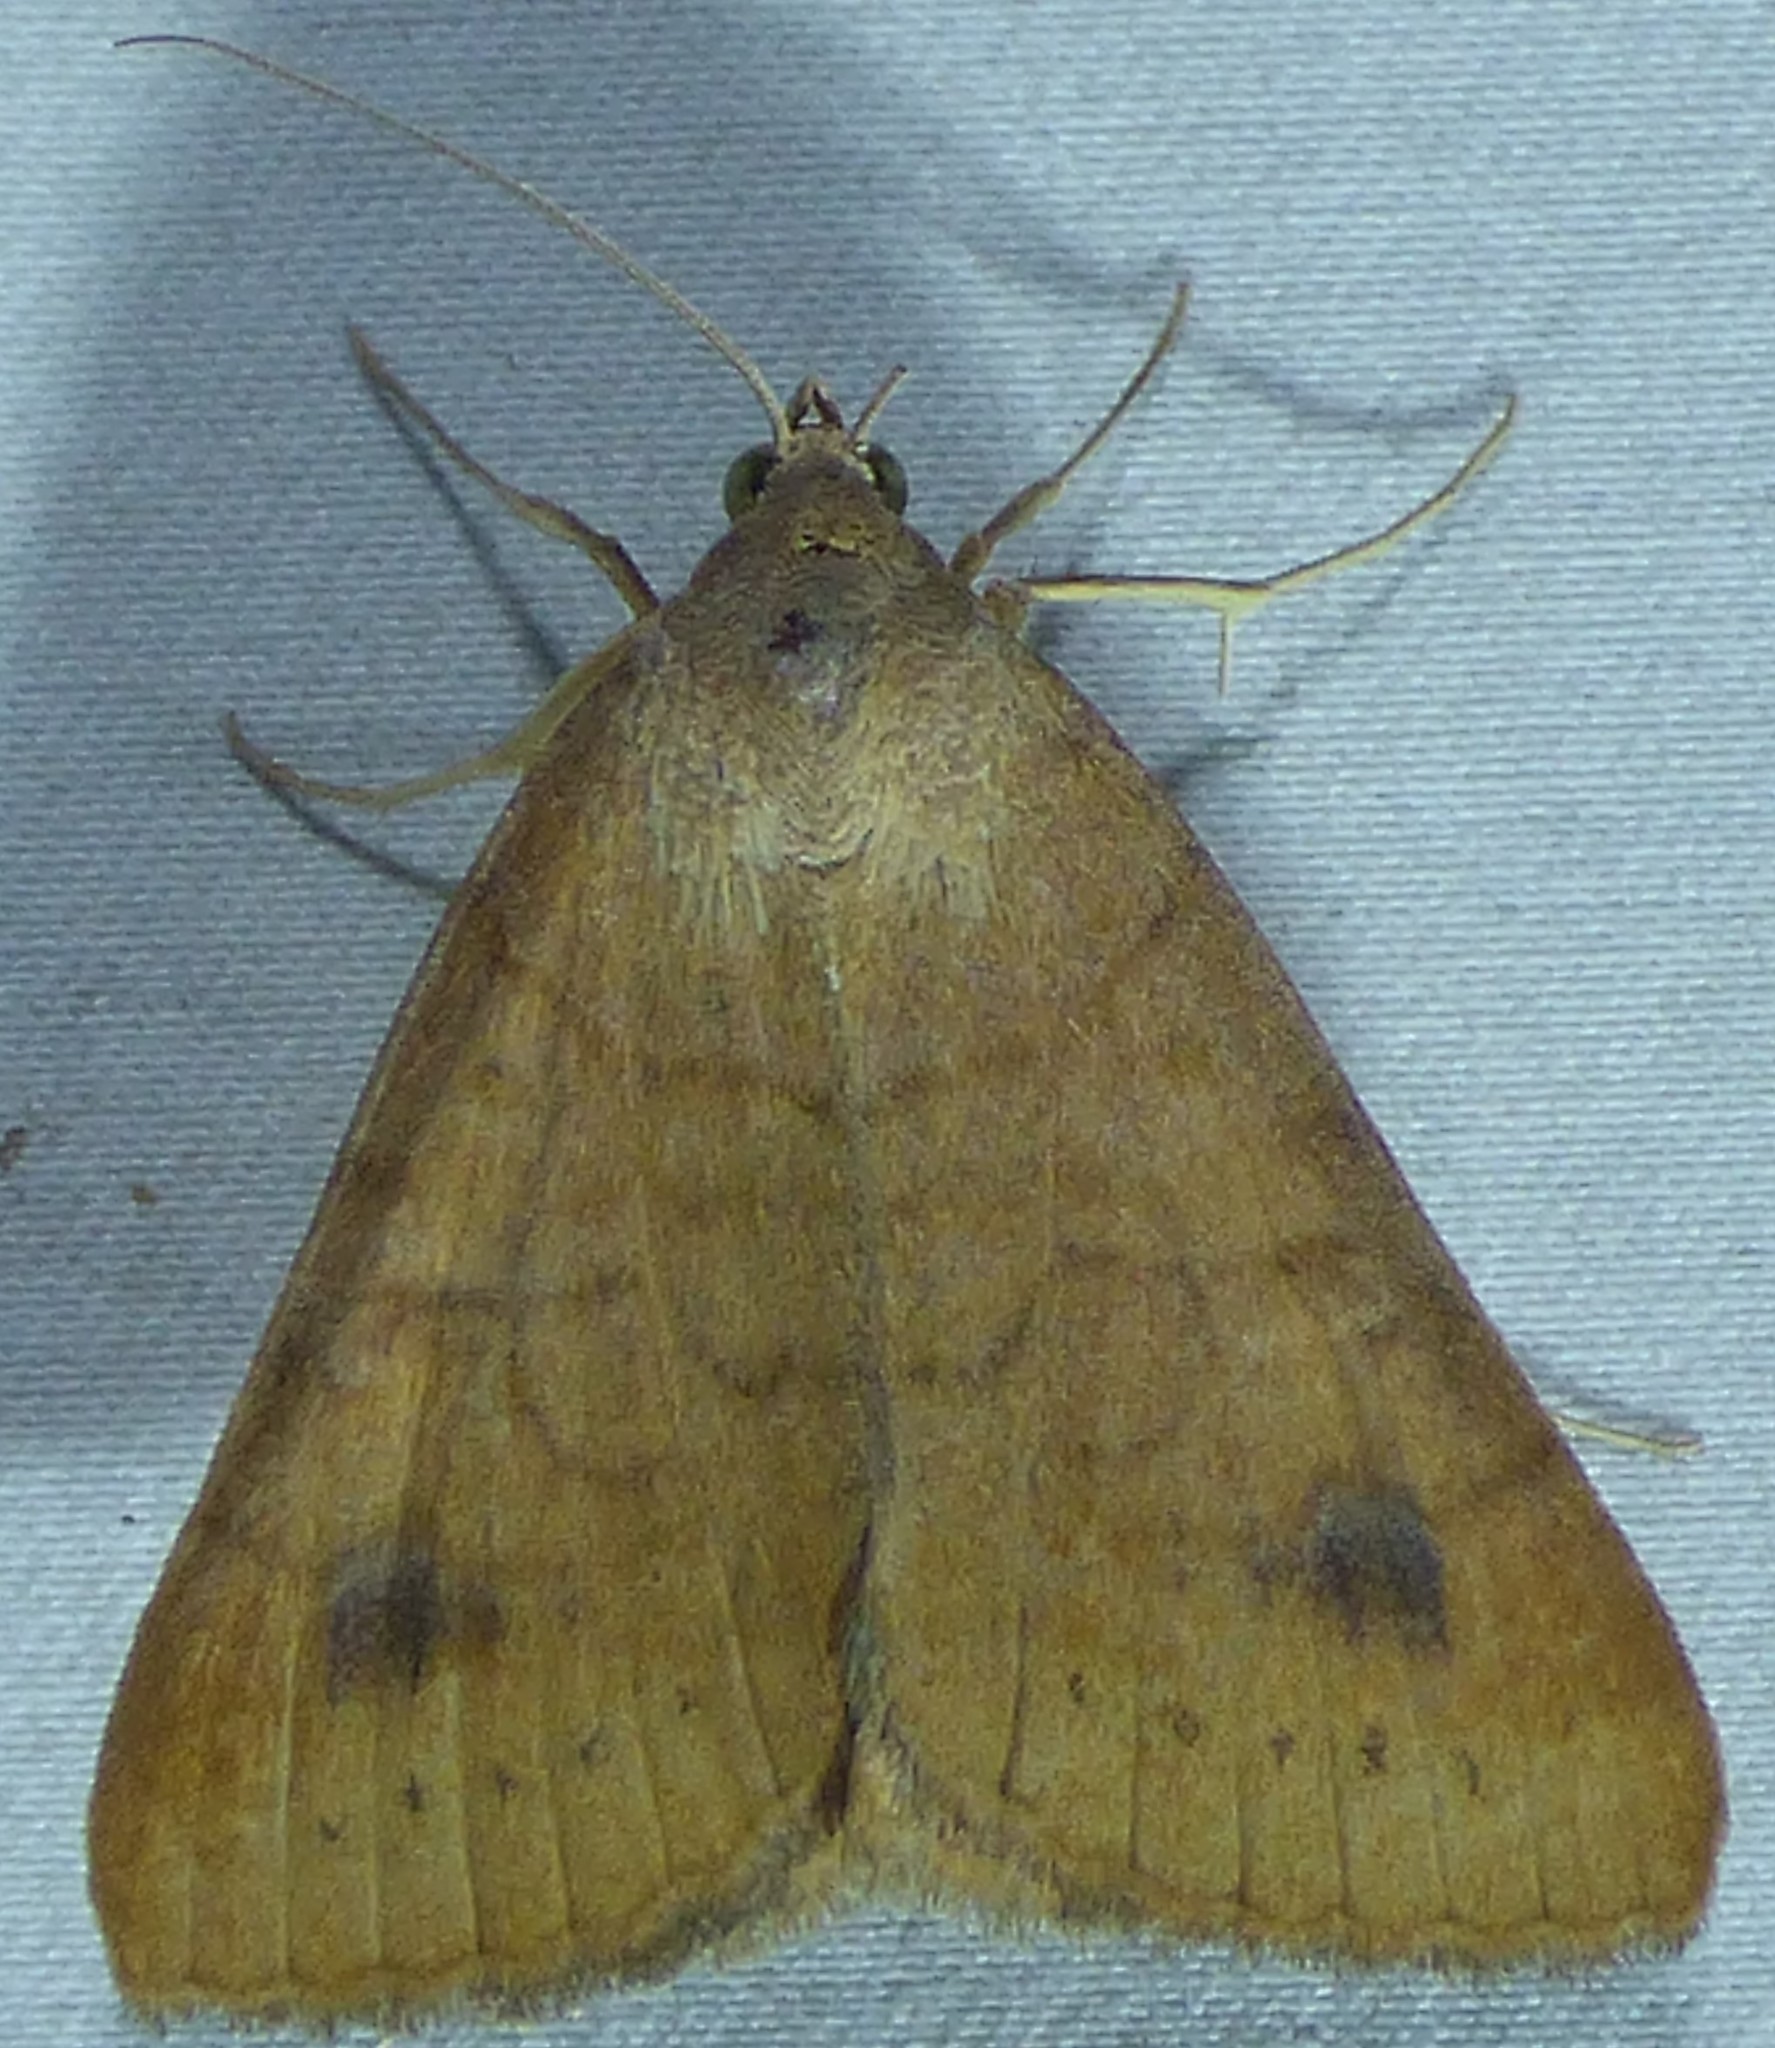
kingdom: Animalia
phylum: Arthropoda
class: Insecta
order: Lepidoptera
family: Erebidae
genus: Caenurgia
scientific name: Caenurgia chloropha
